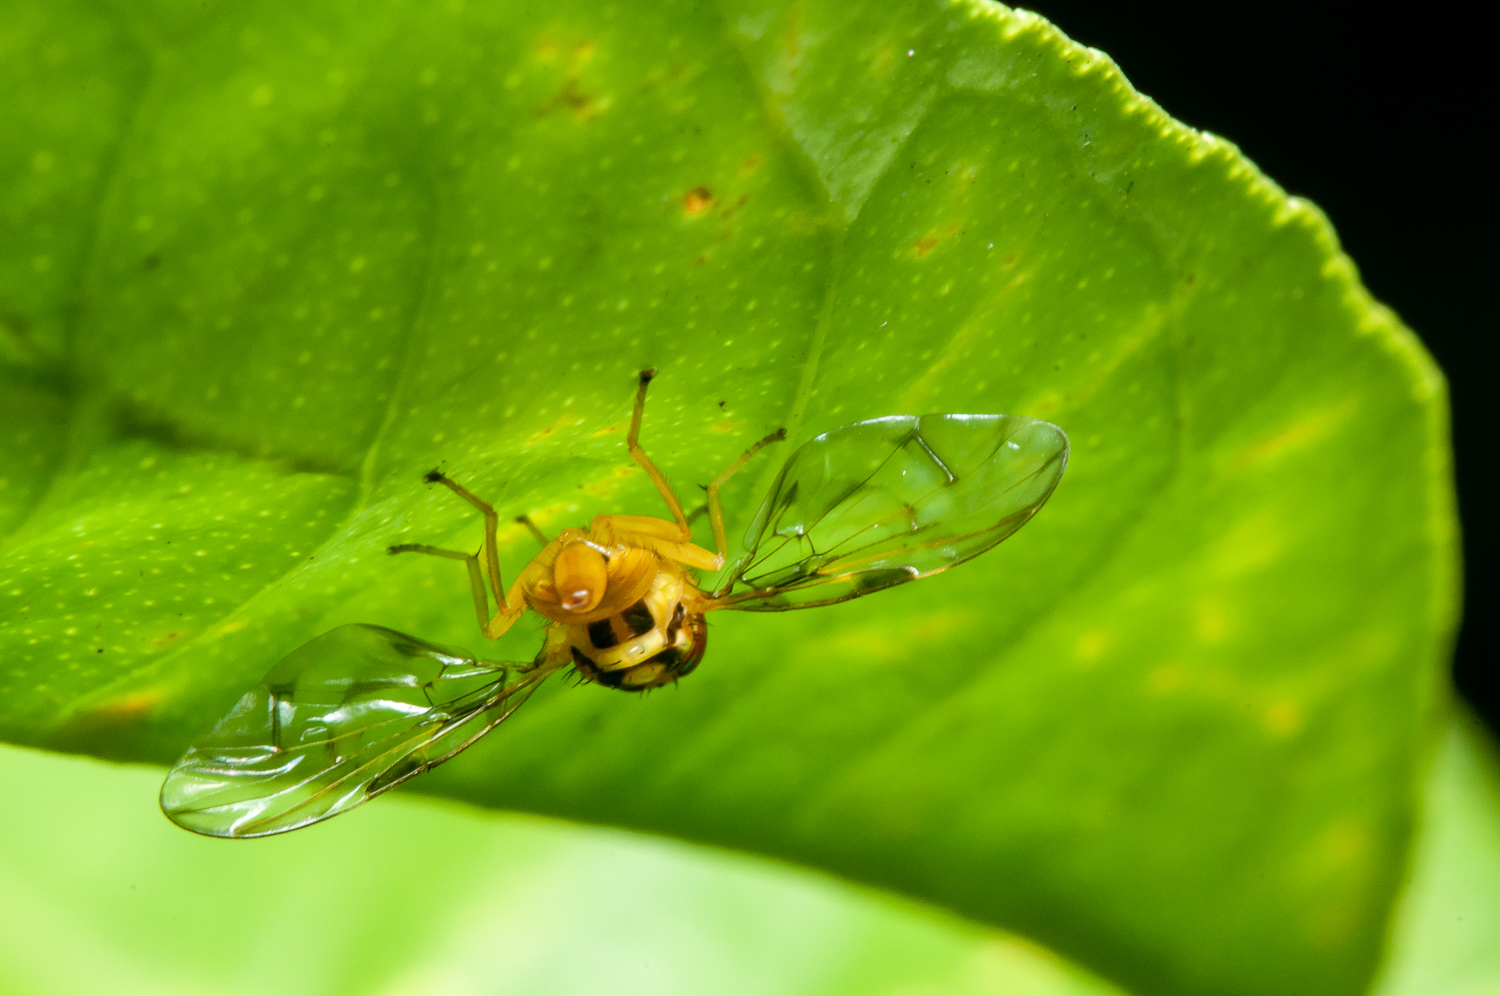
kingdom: Animalia
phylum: Arthropoda
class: Insecta
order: Diptera
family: Tephritidae
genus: Anastrepha
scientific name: Anastrepha
